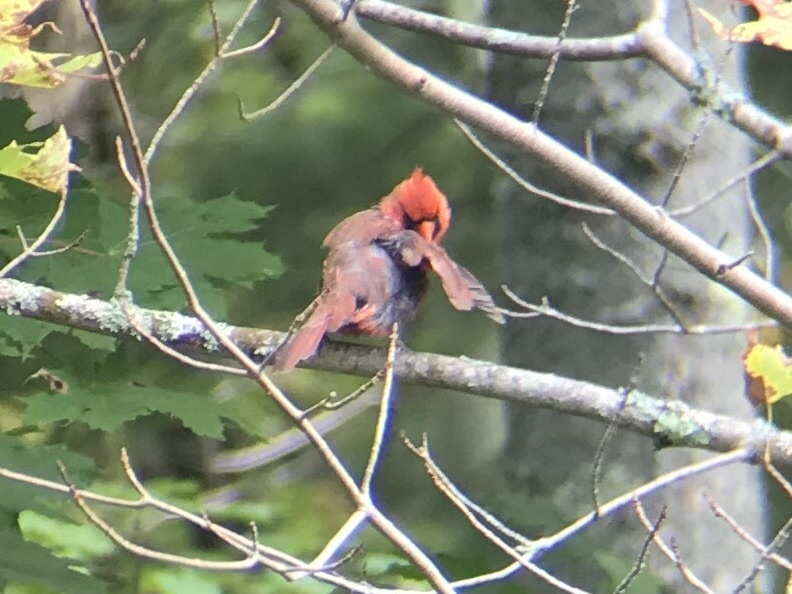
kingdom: Animalia
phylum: Chordata
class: Aves
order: Passeriformes
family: Cardinalidae
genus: Cardinalis
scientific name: Cardinalis cardinalis
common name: Northern cardinal
